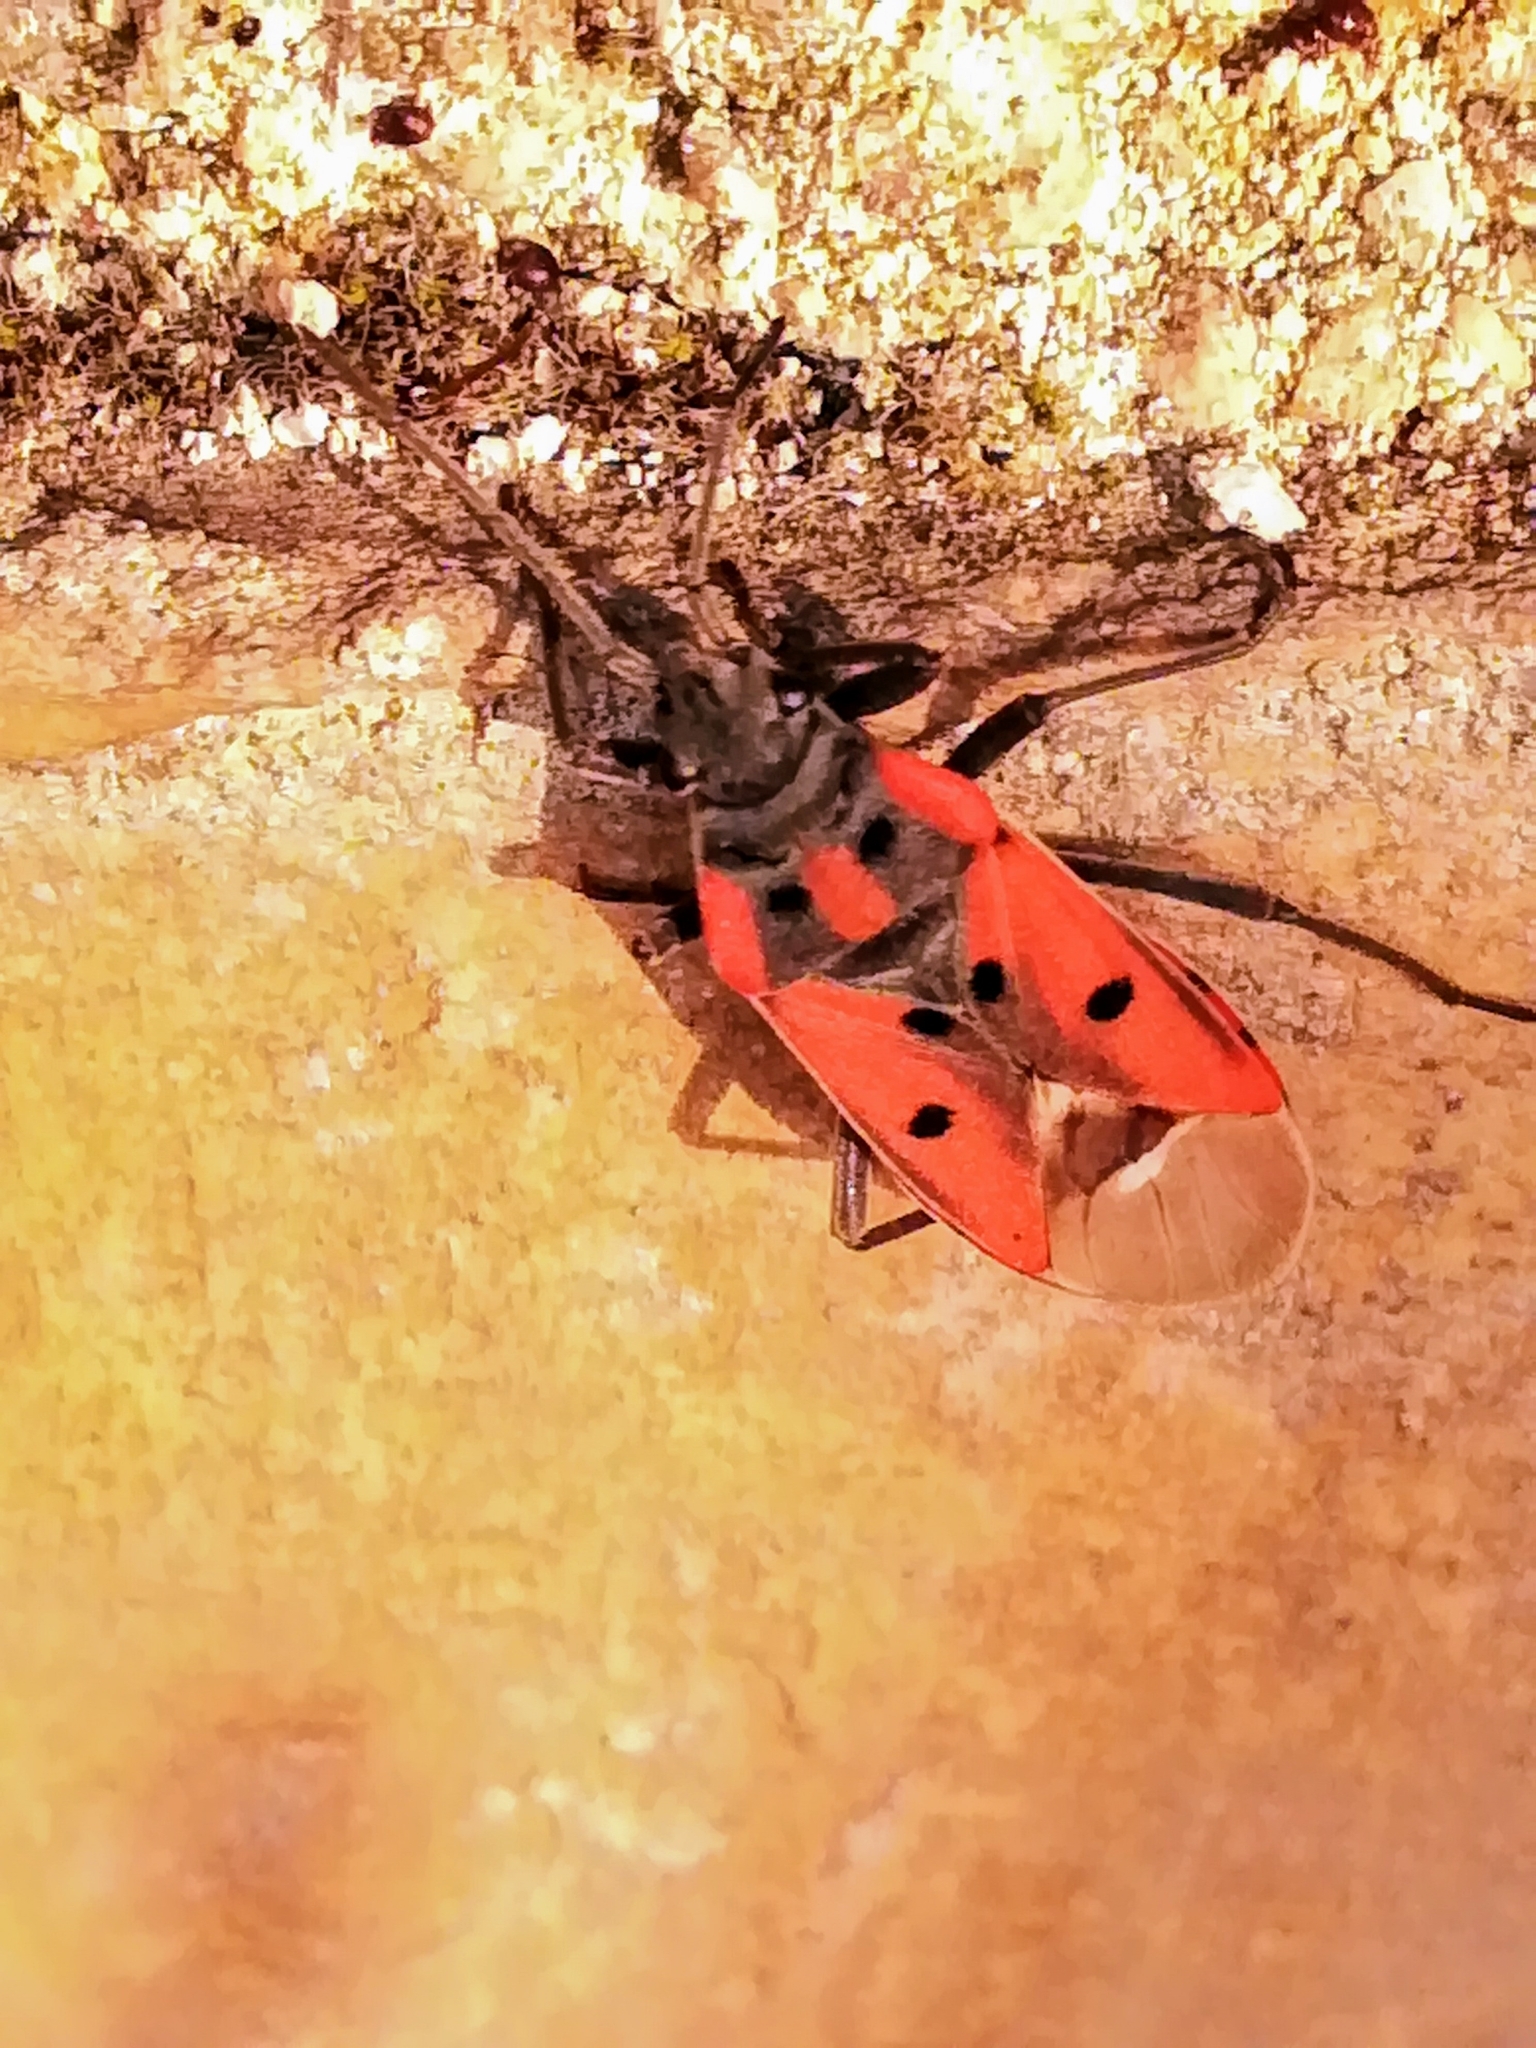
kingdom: Animalia
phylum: Arthropoda
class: Insecta
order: Hemiptera
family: Lygaeidae
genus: Lygaeus
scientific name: Lygaeus creticus
